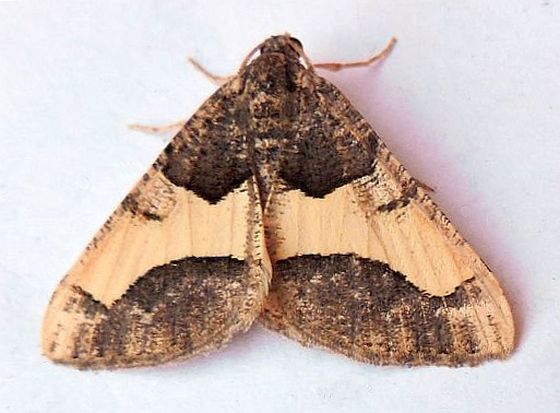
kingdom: Animalia
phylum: Arthropoda
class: Insecta
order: Lepidoptera
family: Geometridae
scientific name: Geometridae
